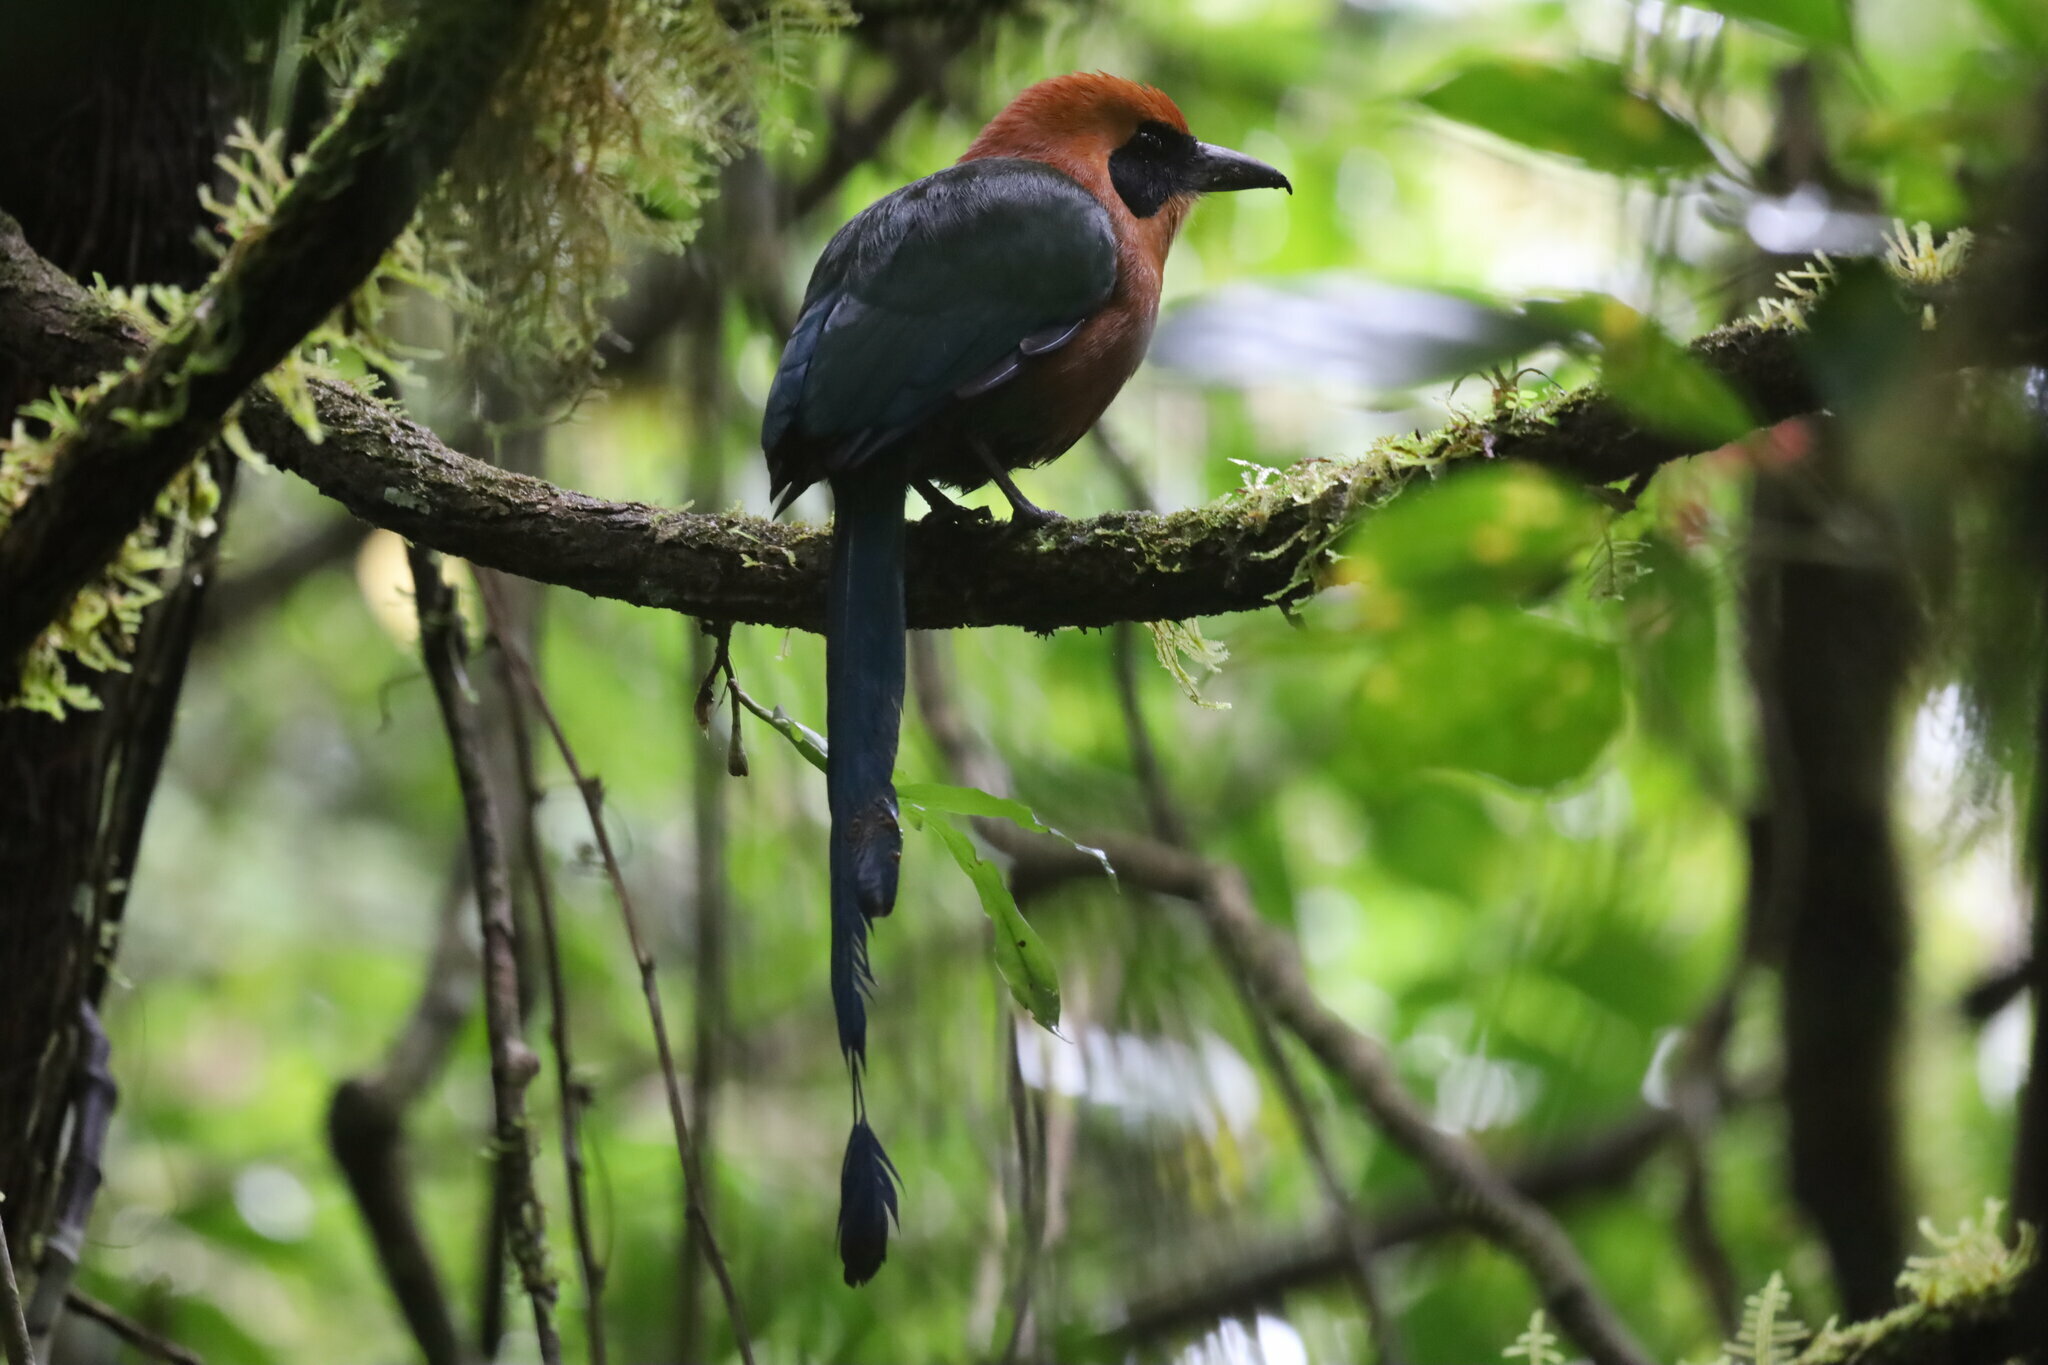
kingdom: Animalia
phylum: Chordata
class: Aves
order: Coraciiformes
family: Momotidae
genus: Baryphthengus
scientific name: Baryphthengus martii
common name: Rufous motmot
